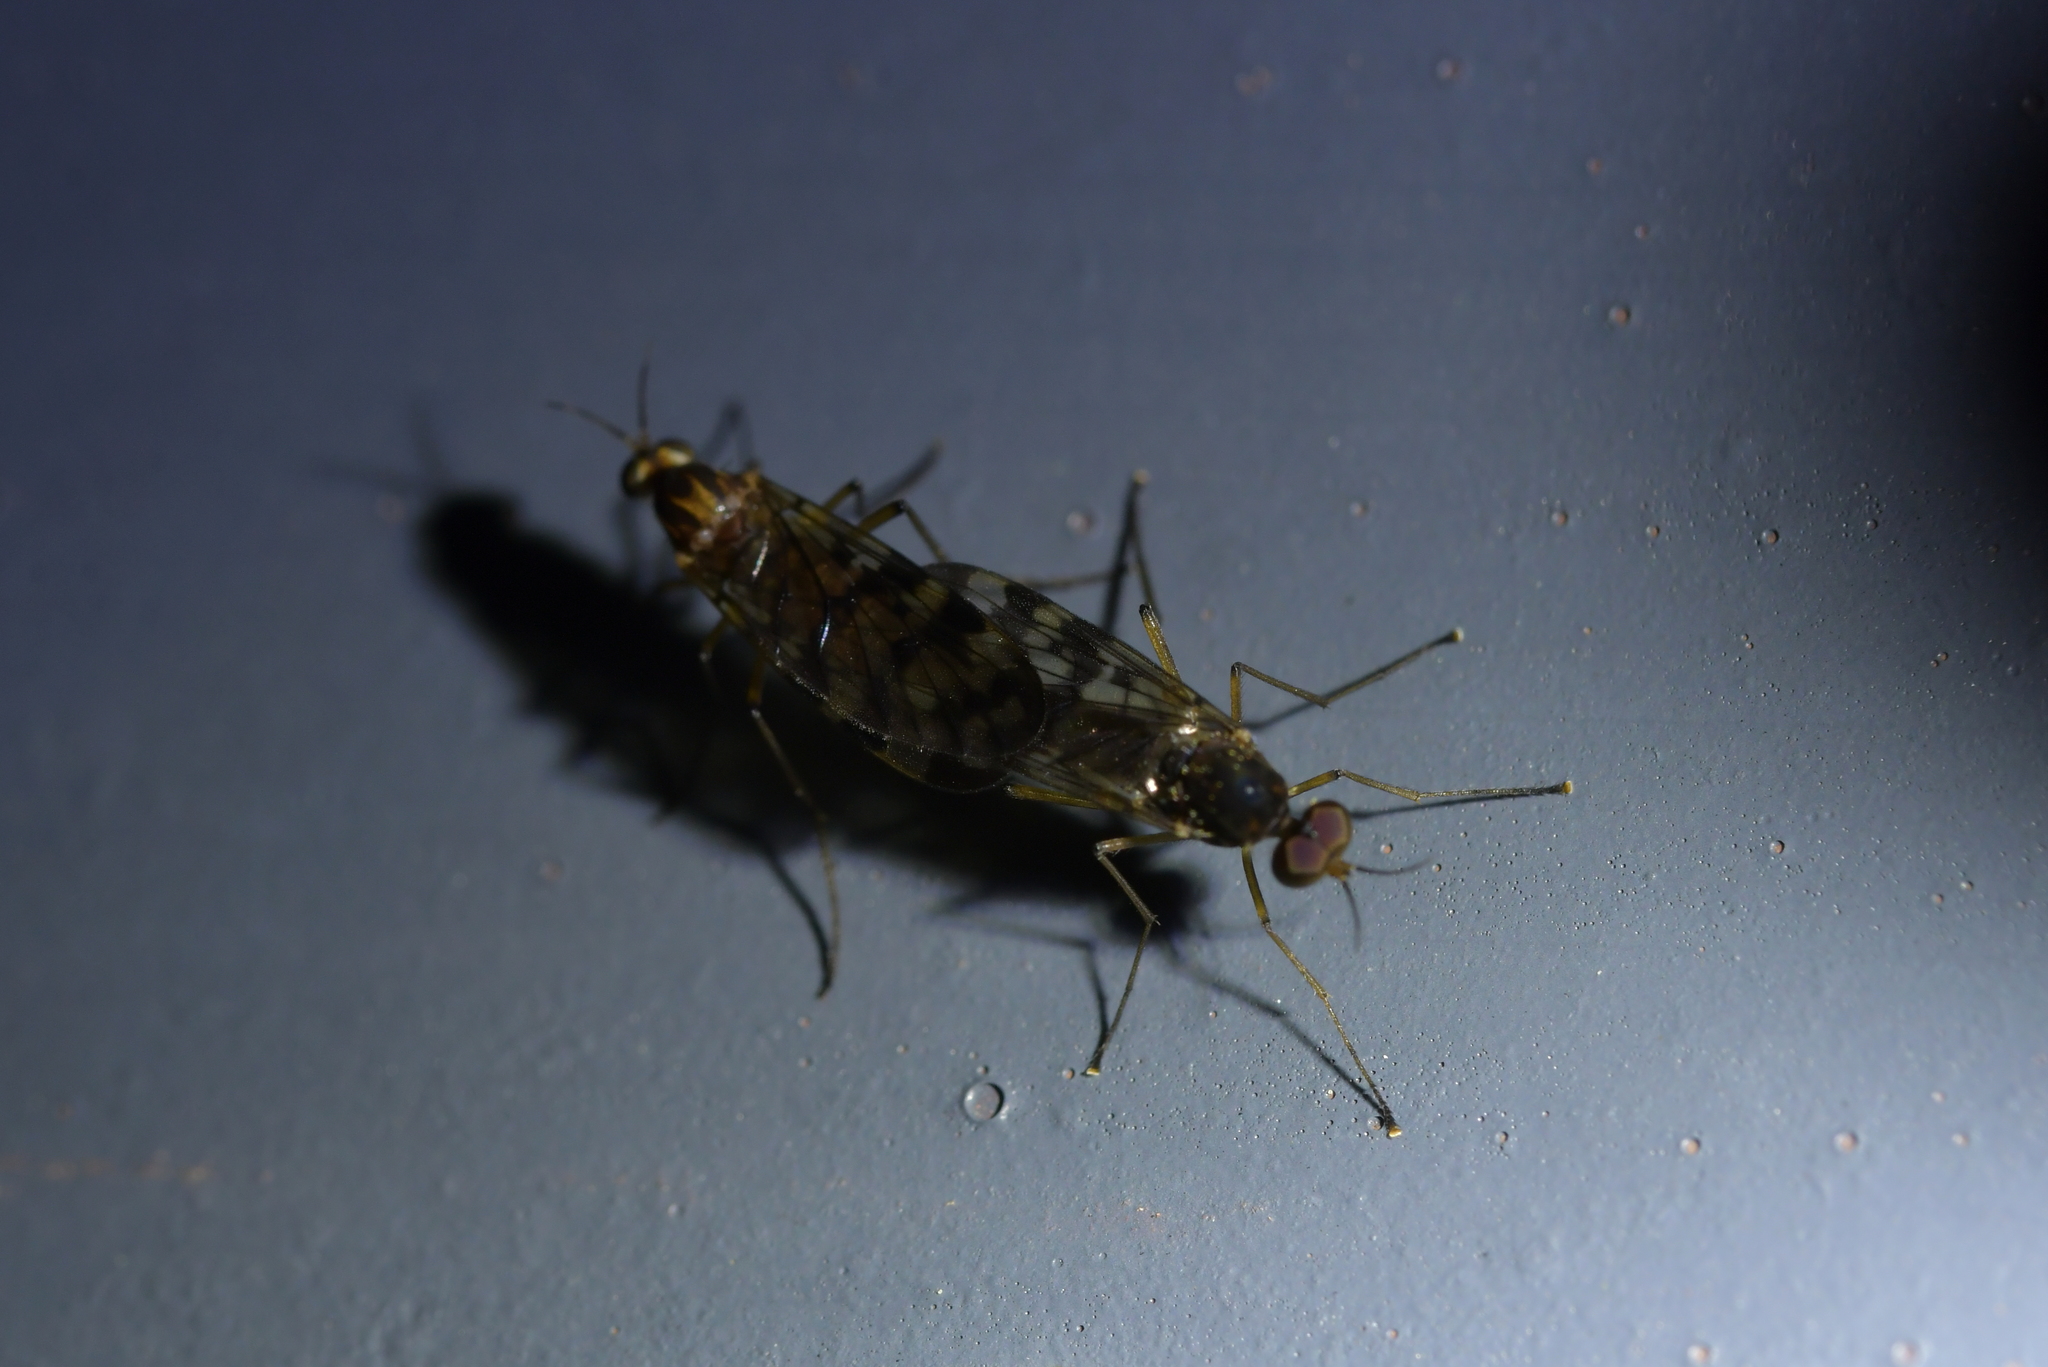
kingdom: Animalia
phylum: Arthropoda
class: Insecta
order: Diptera
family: Anisopodidae
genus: Sylvicola
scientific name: Sylvicola dubius
